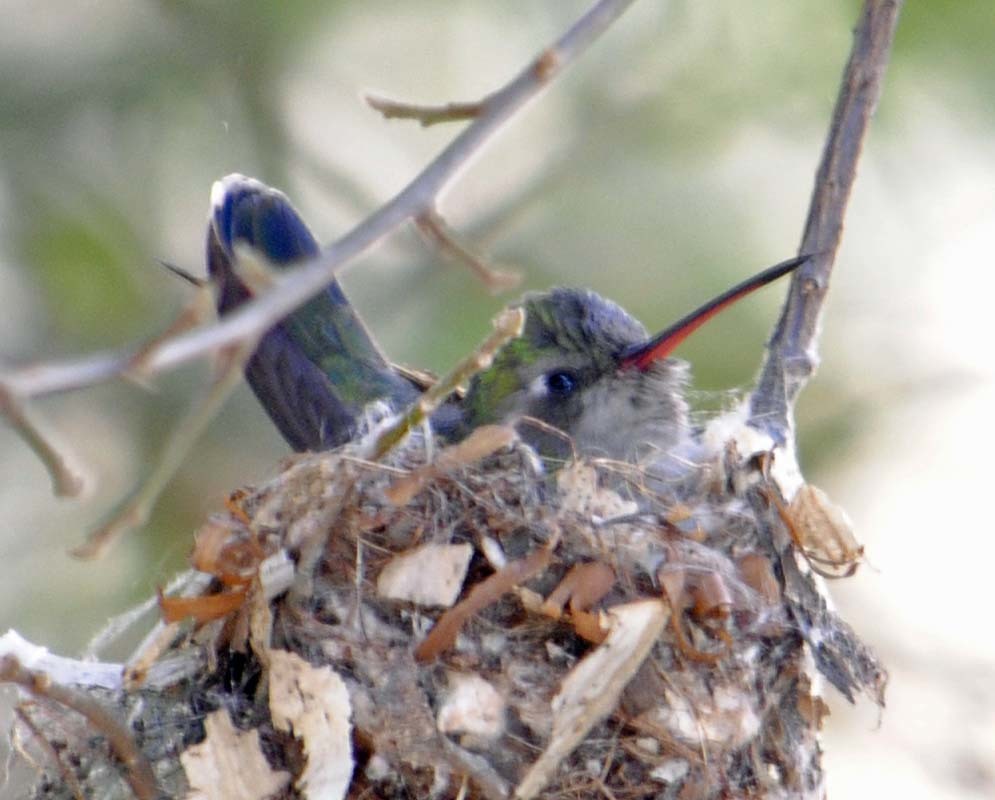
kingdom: Animalia
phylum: Chordata
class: Aves
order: Apodiformes
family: Trochilidae
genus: Cynanthus
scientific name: Cynanthus latirostris
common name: Broad-billed hummingbird
